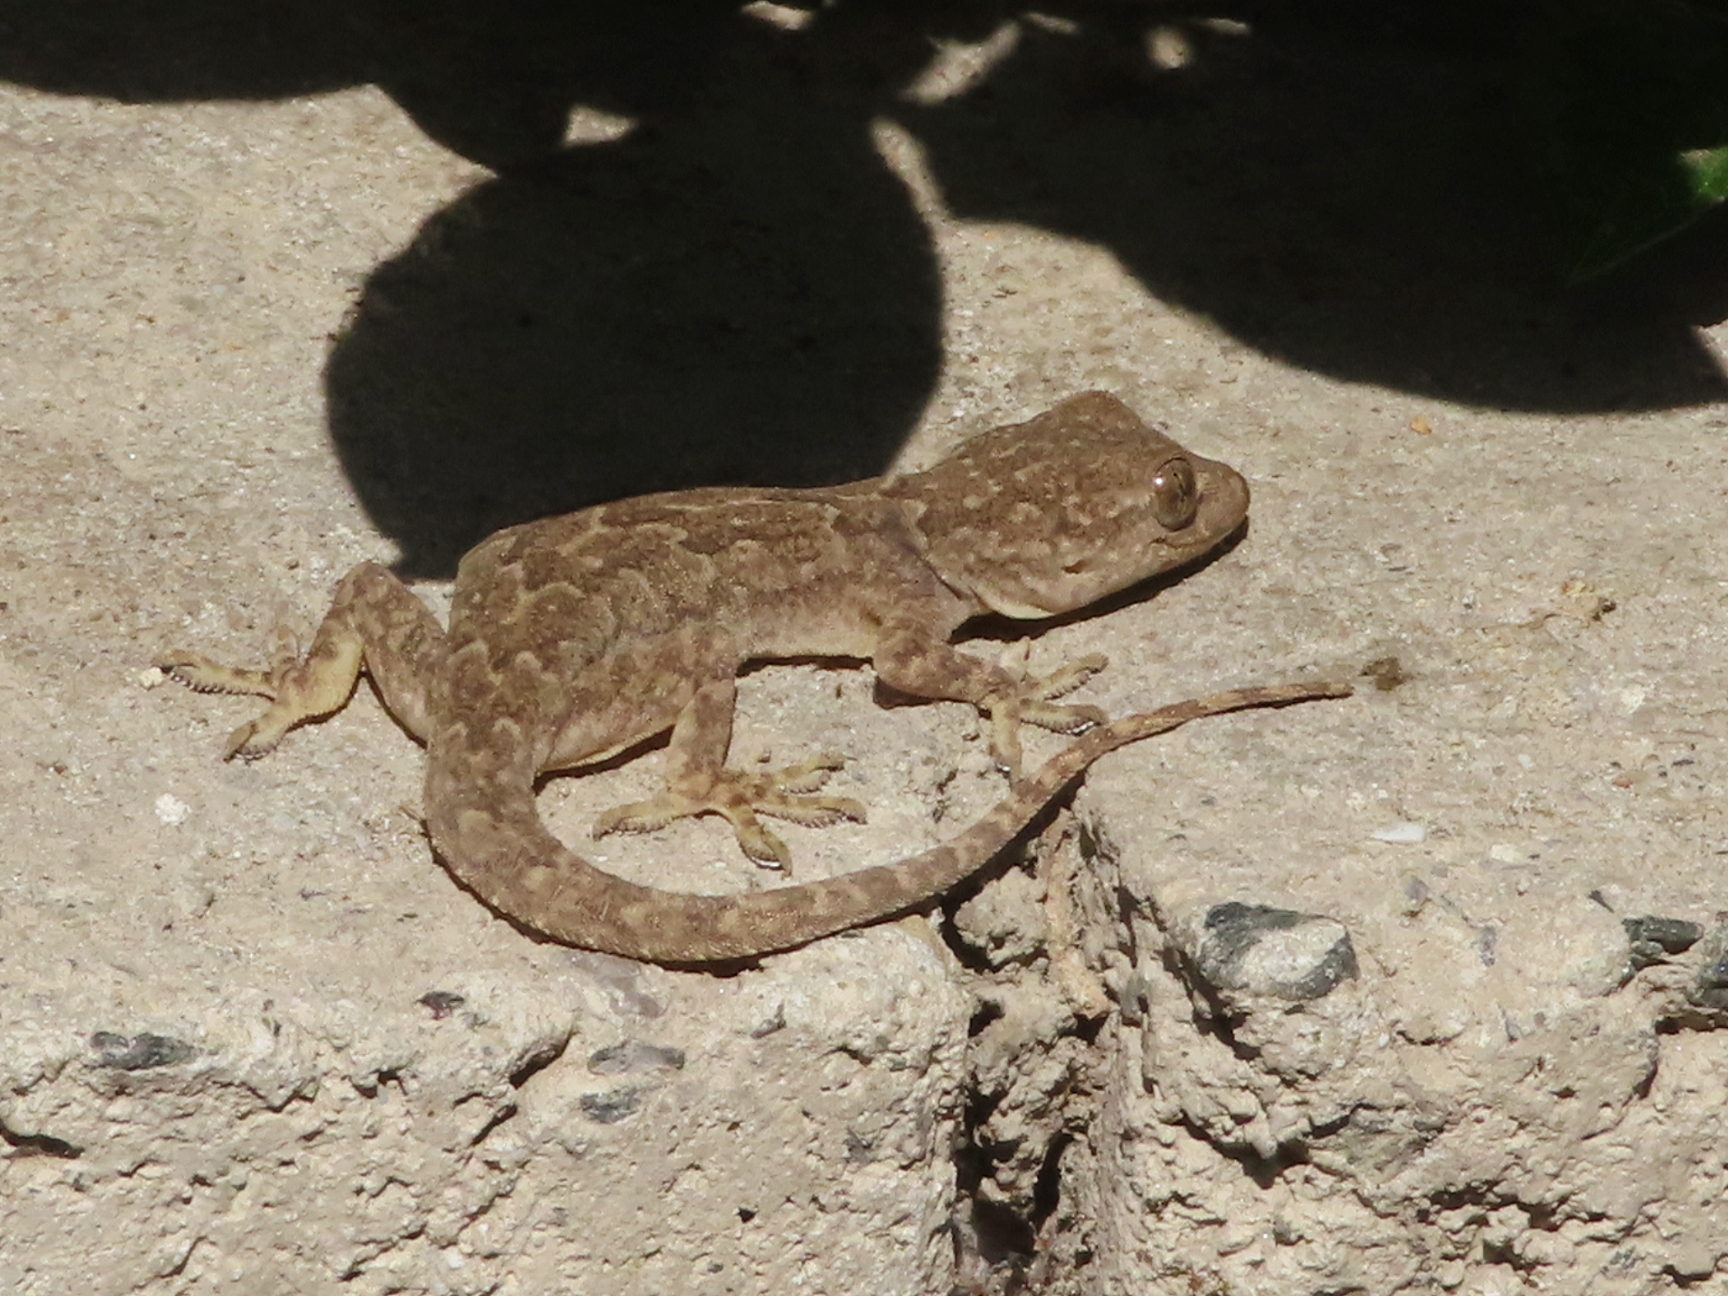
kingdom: Animalia
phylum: Chordata
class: Squamata
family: Gekkonidae
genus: Hemidactylus
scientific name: Hemidactylus flaviviridis
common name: Northern house gecko
